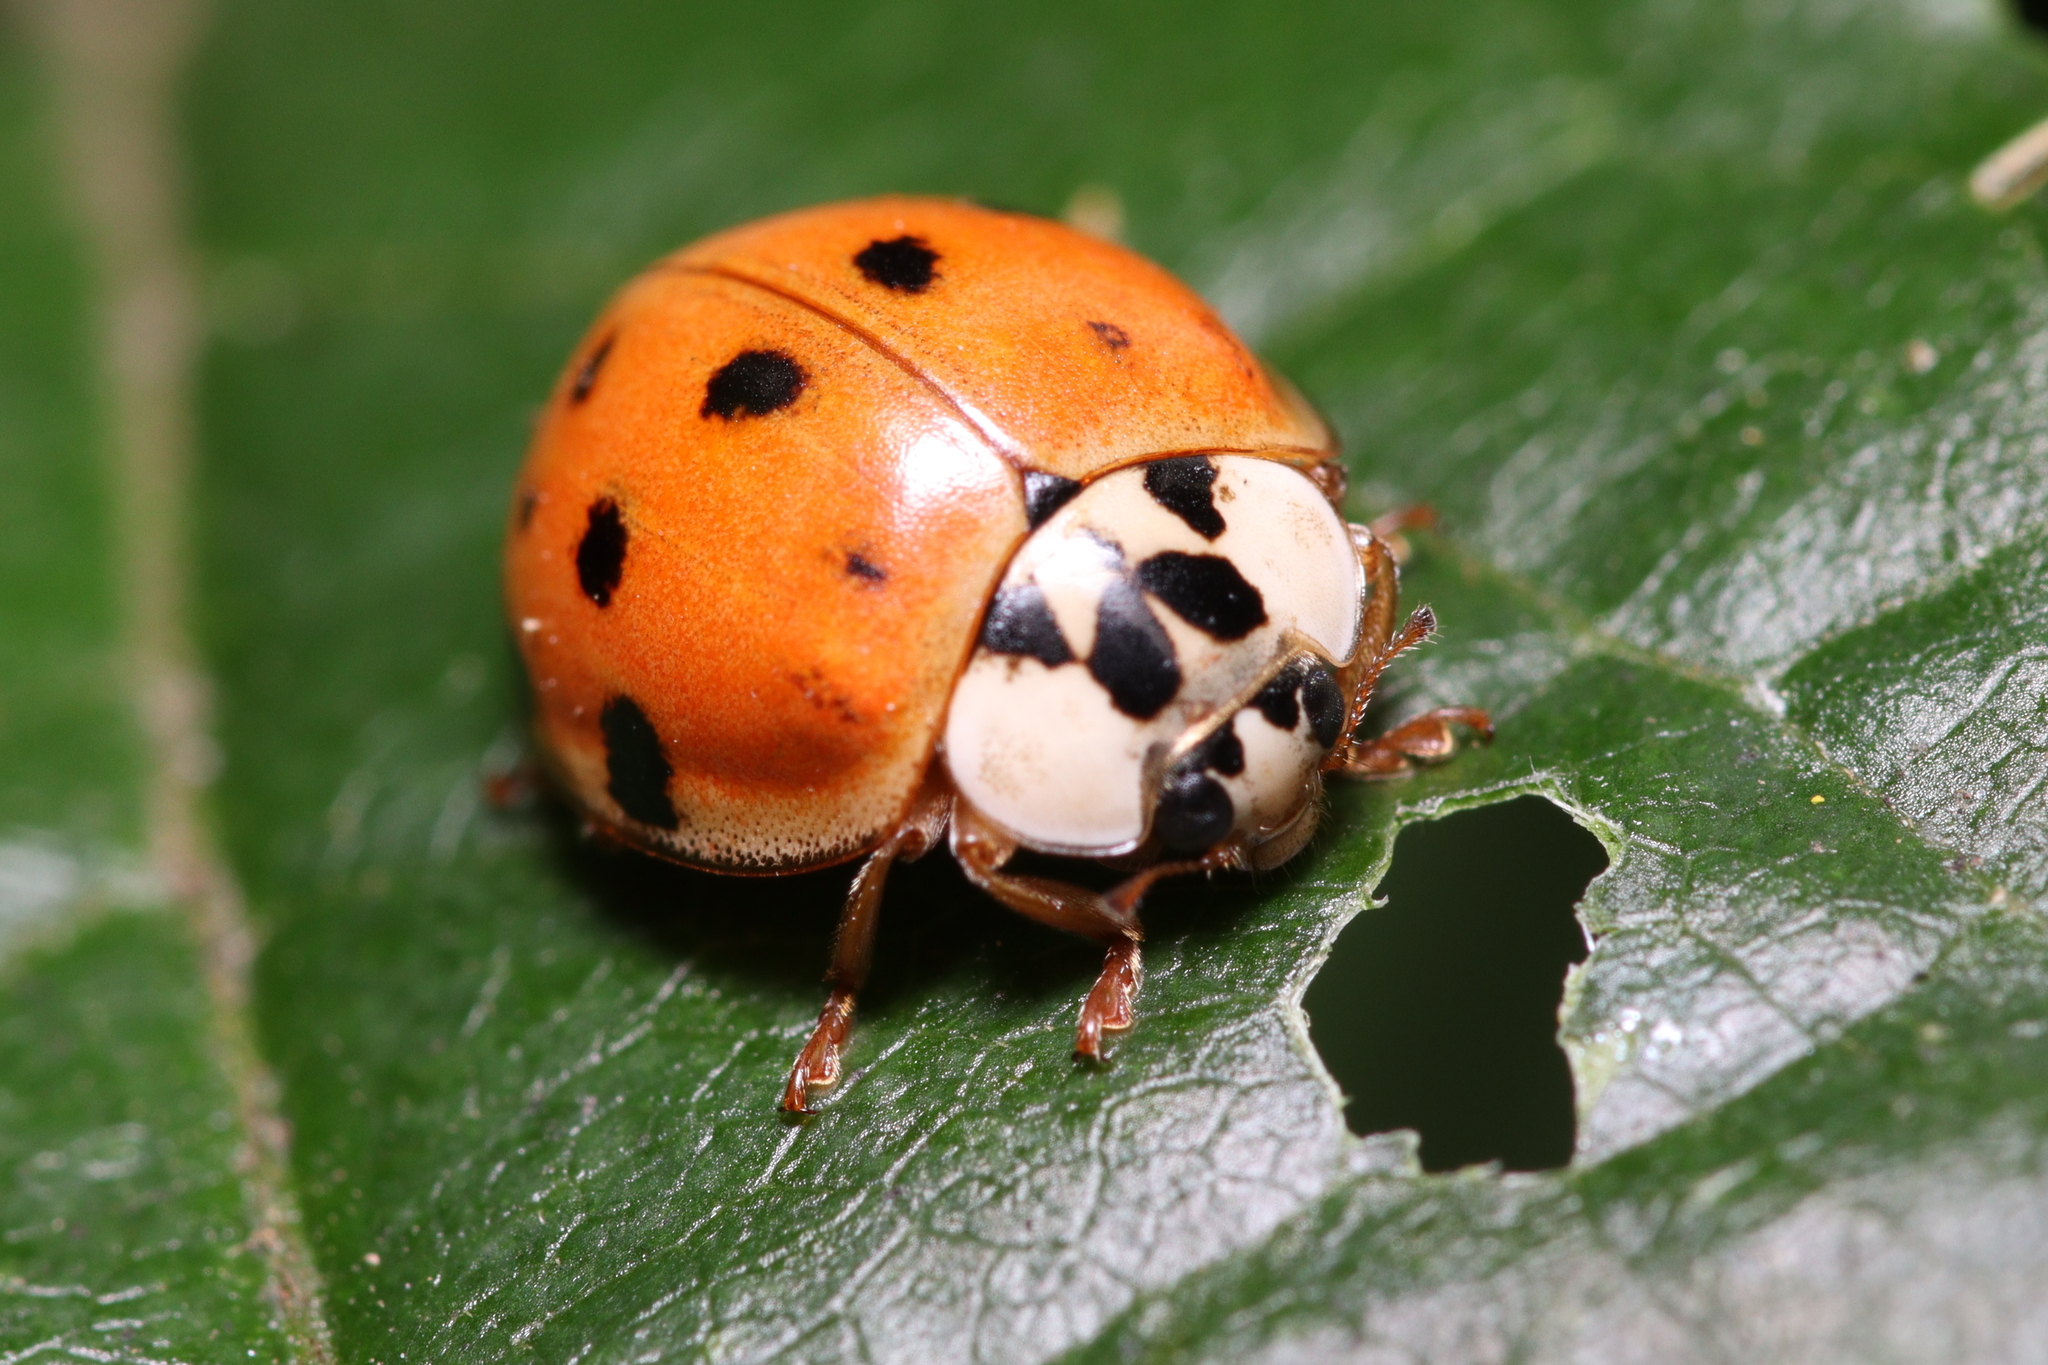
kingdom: Animalia
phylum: Arthropoda
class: Insecta
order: Coleoptera
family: Coccinellidae
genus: Harmonia
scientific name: Harmonia axyridis
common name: Harlequin ladybird
